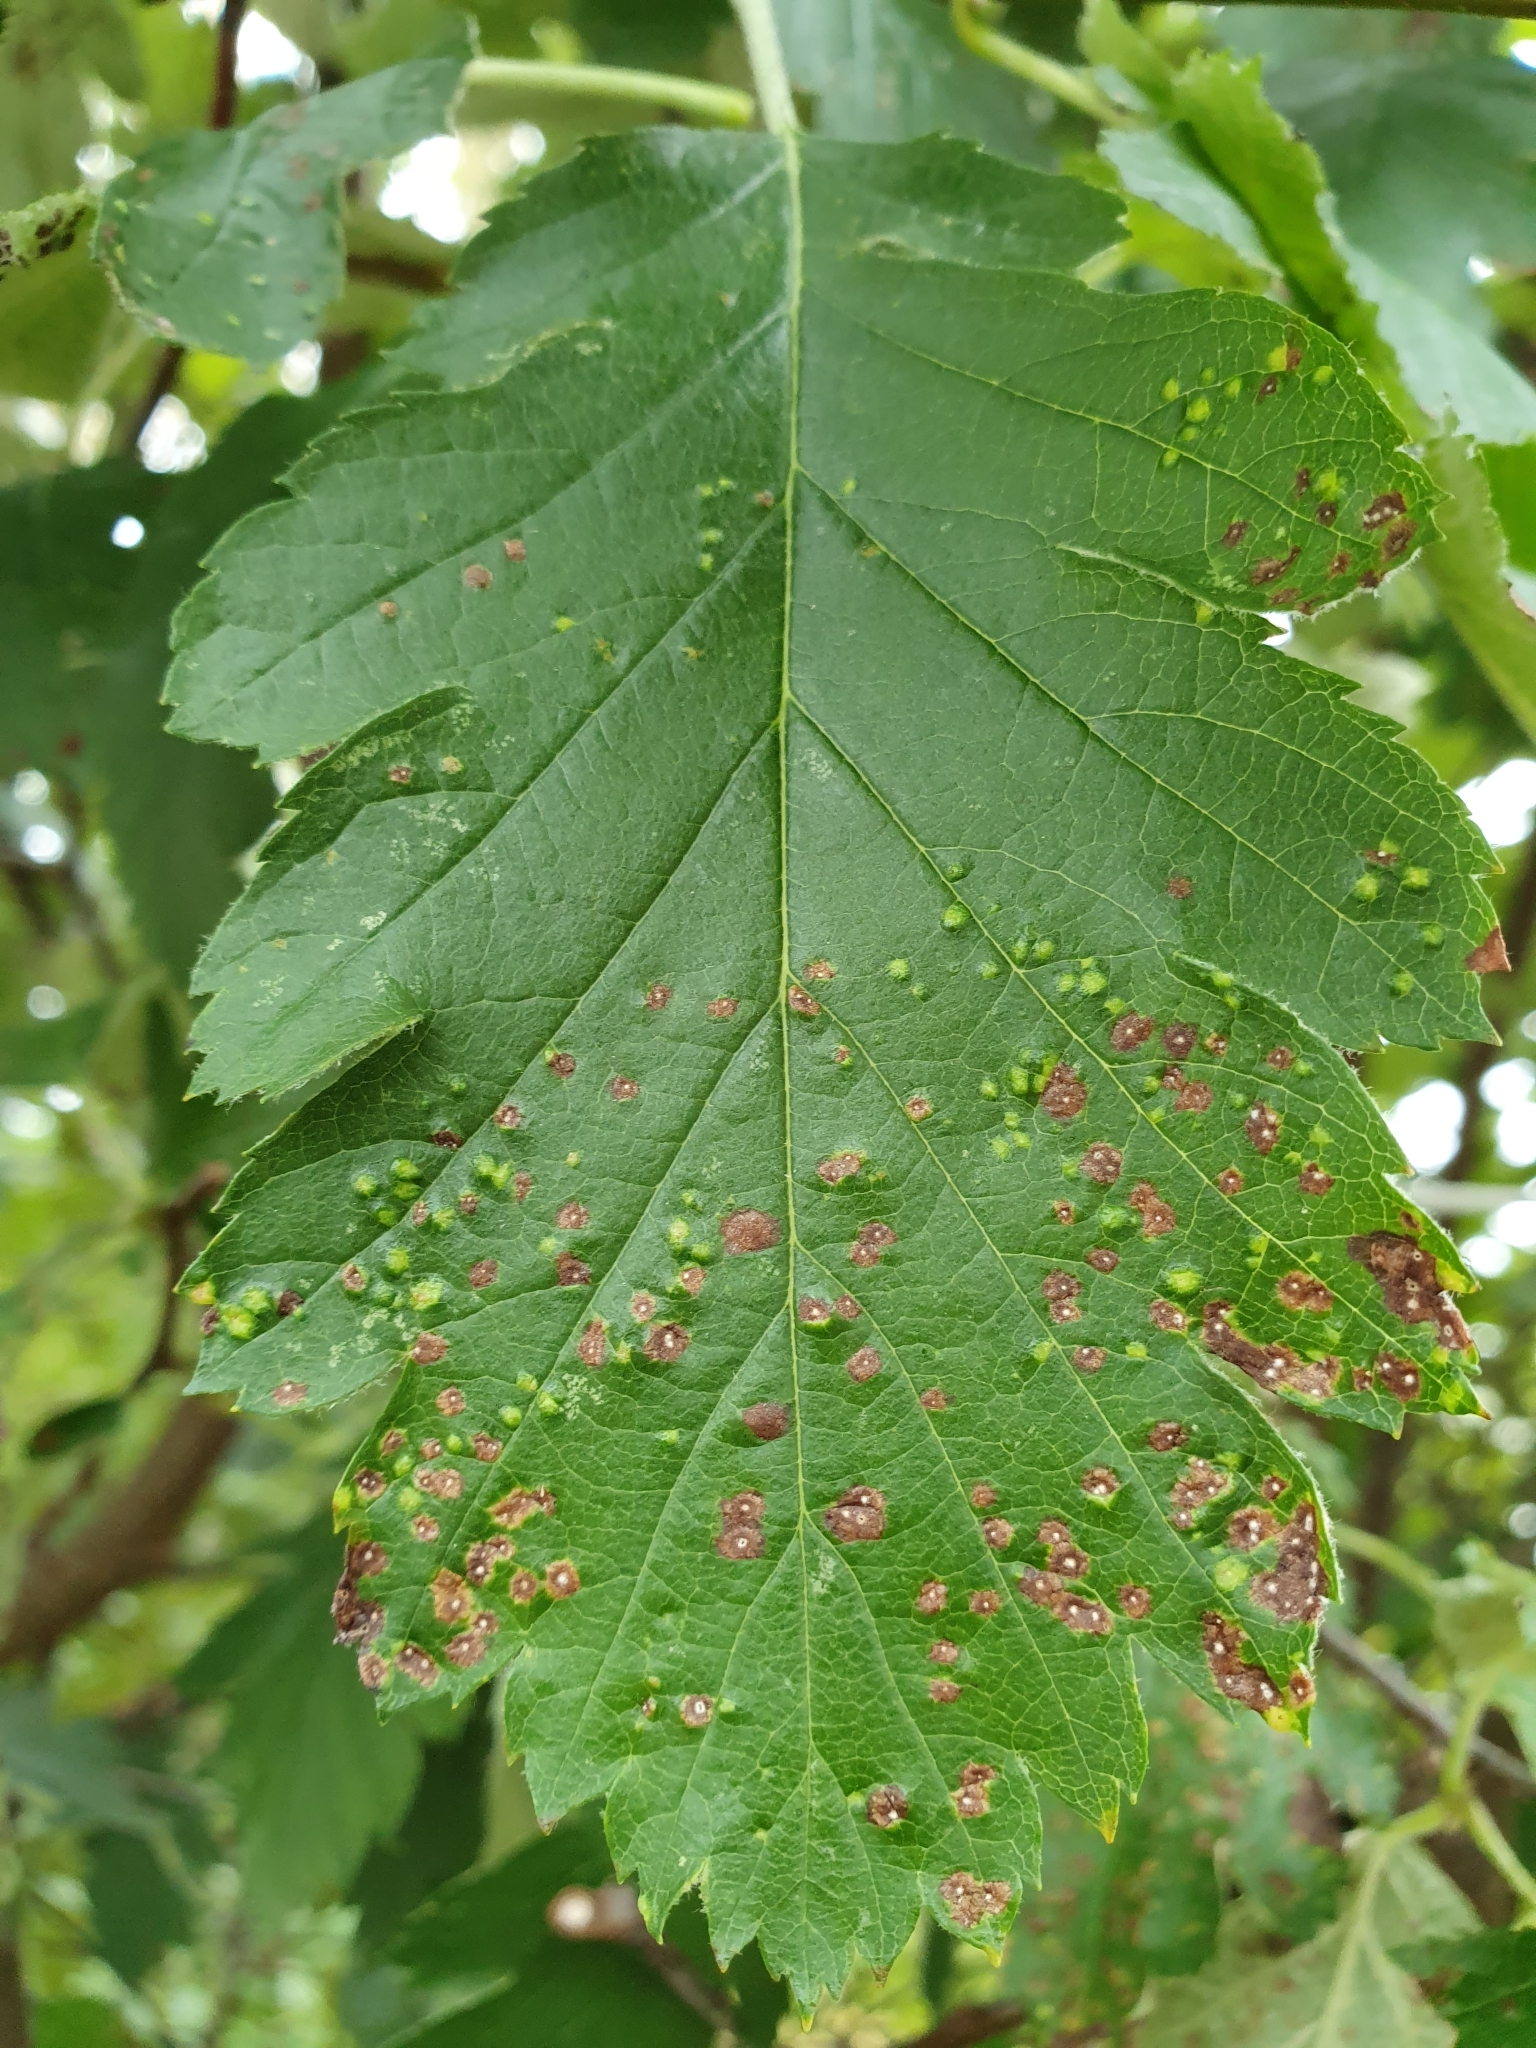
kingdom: Animalia
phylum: Arthropoda
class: Arachnida
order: Trombidiformes
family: Eriophyidae
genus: Eriophyes
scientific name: Eriophyes arianus
